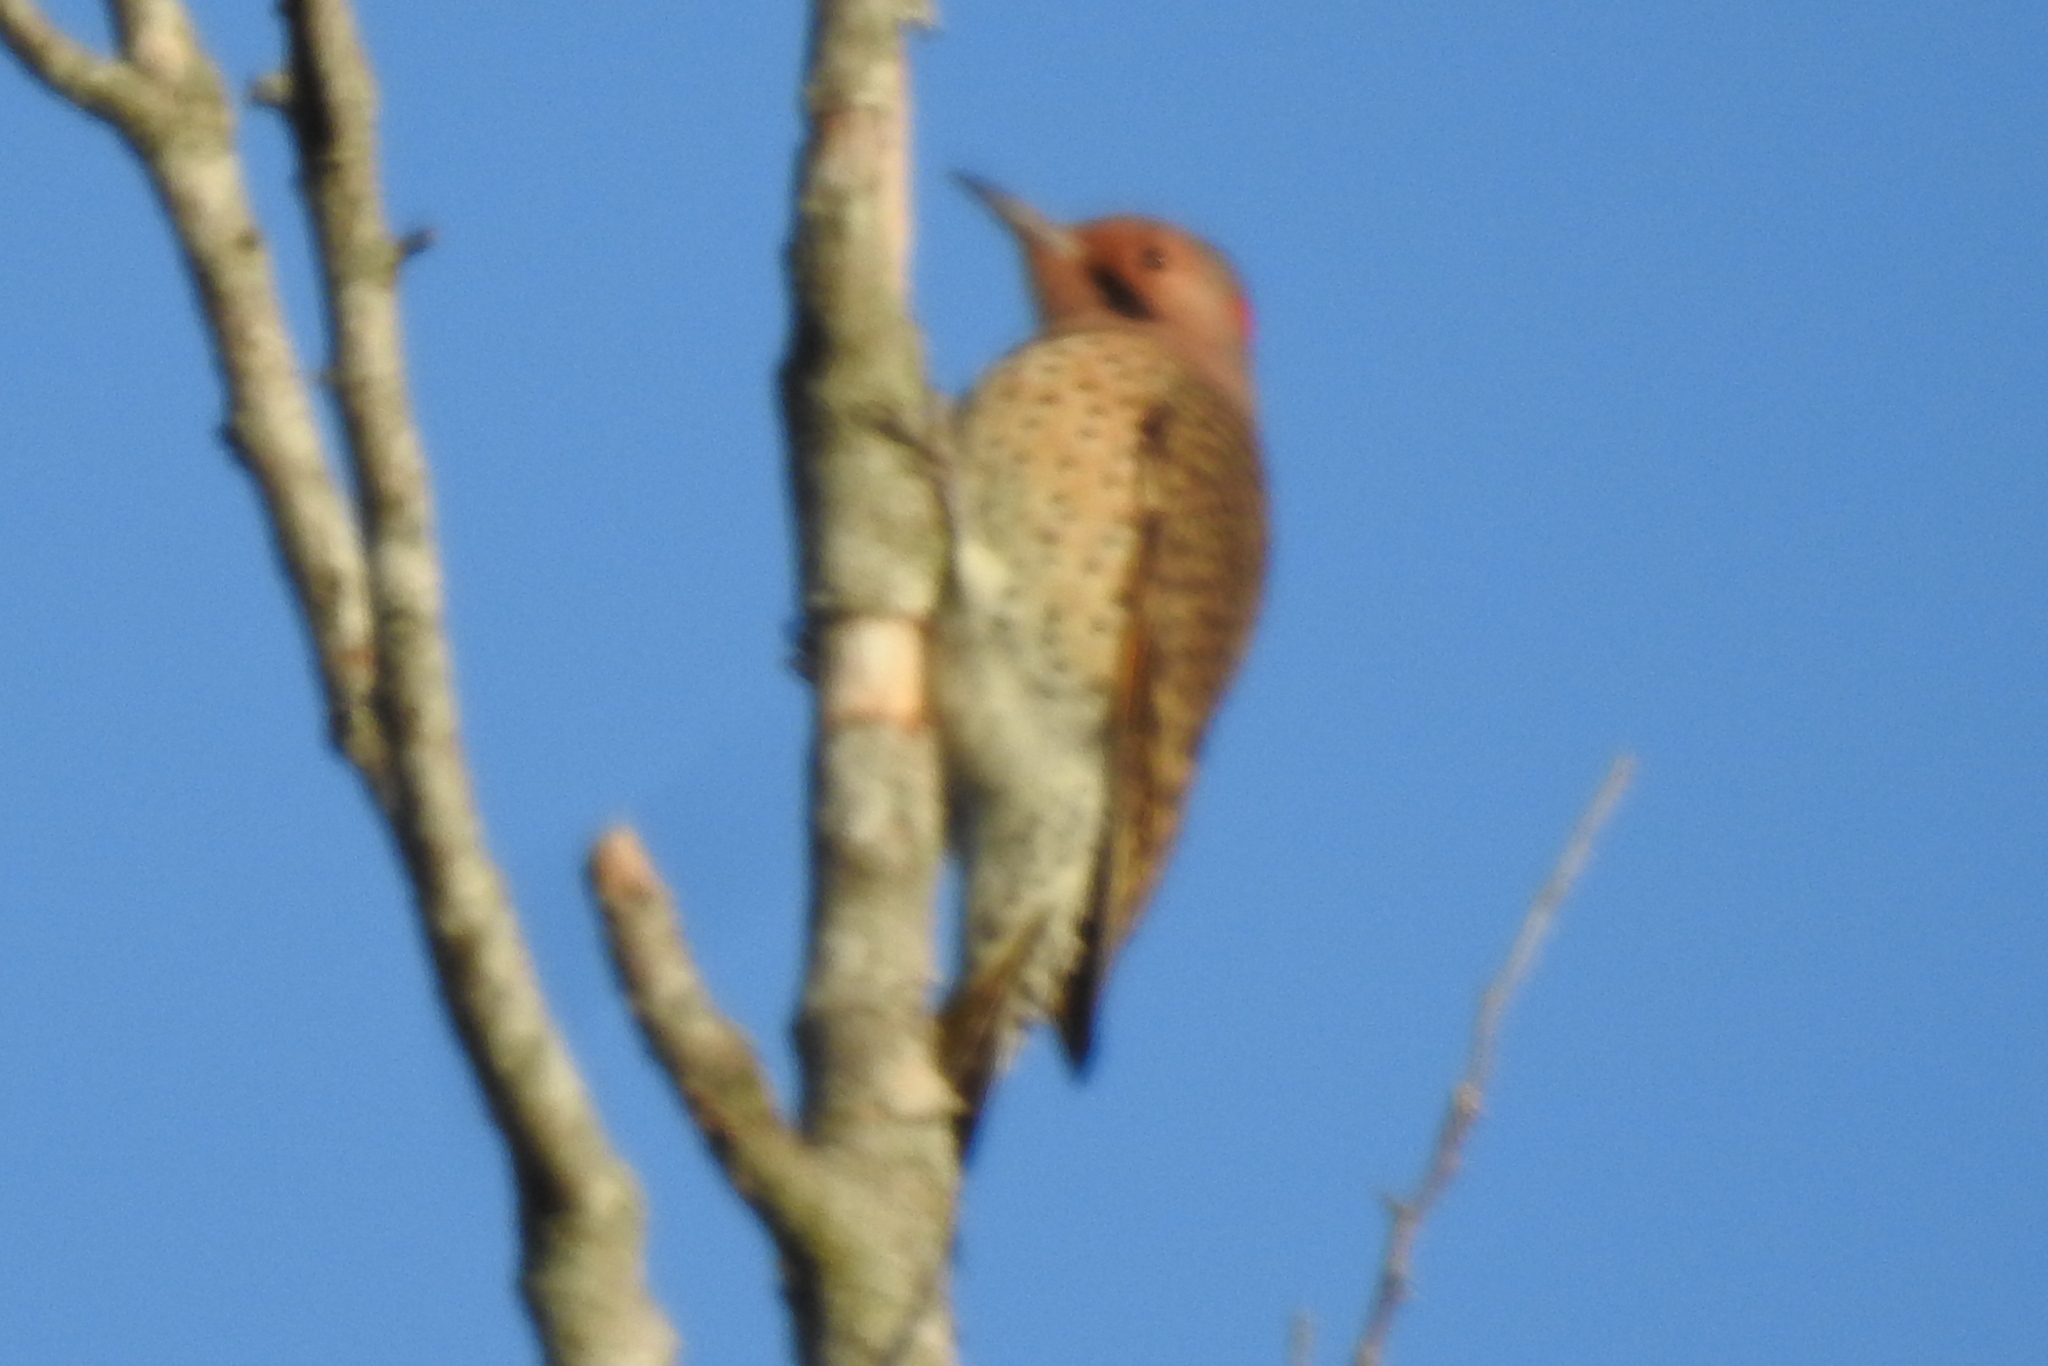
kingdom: Animalia
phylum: Chordata
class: Aves
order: Piciformes
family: Picidae
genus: Colaptes
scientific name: Colaptes auratus
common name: Northern flicker
